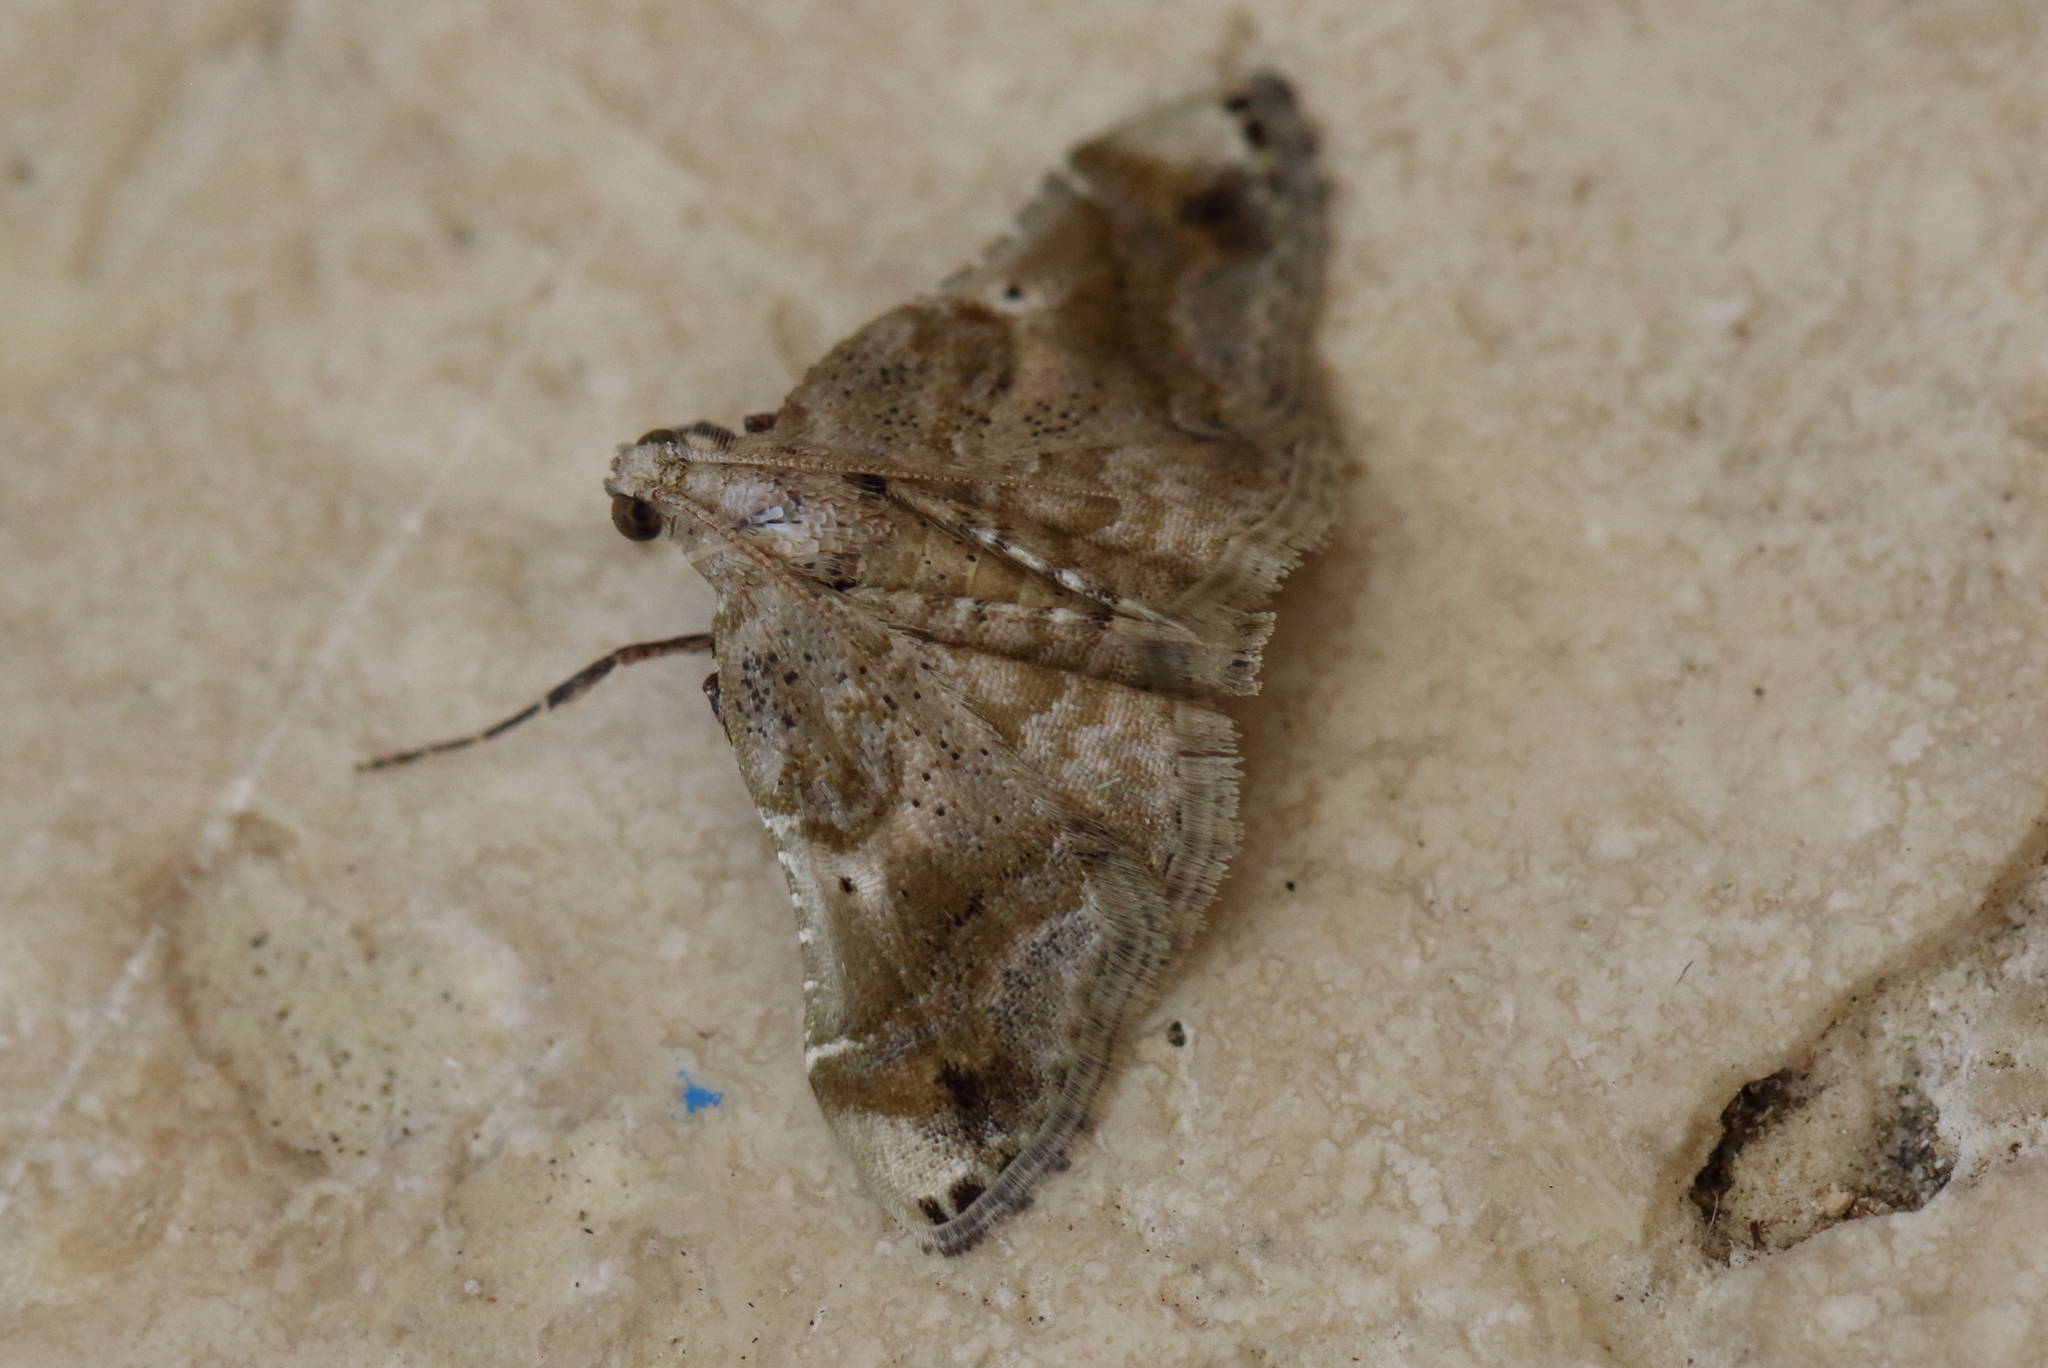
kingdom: Animalia
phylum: Arthropoda
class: Insecta
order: Lepidoptera
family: Pyralidae
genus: Scenedra
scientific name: Scenedra decoratalis
